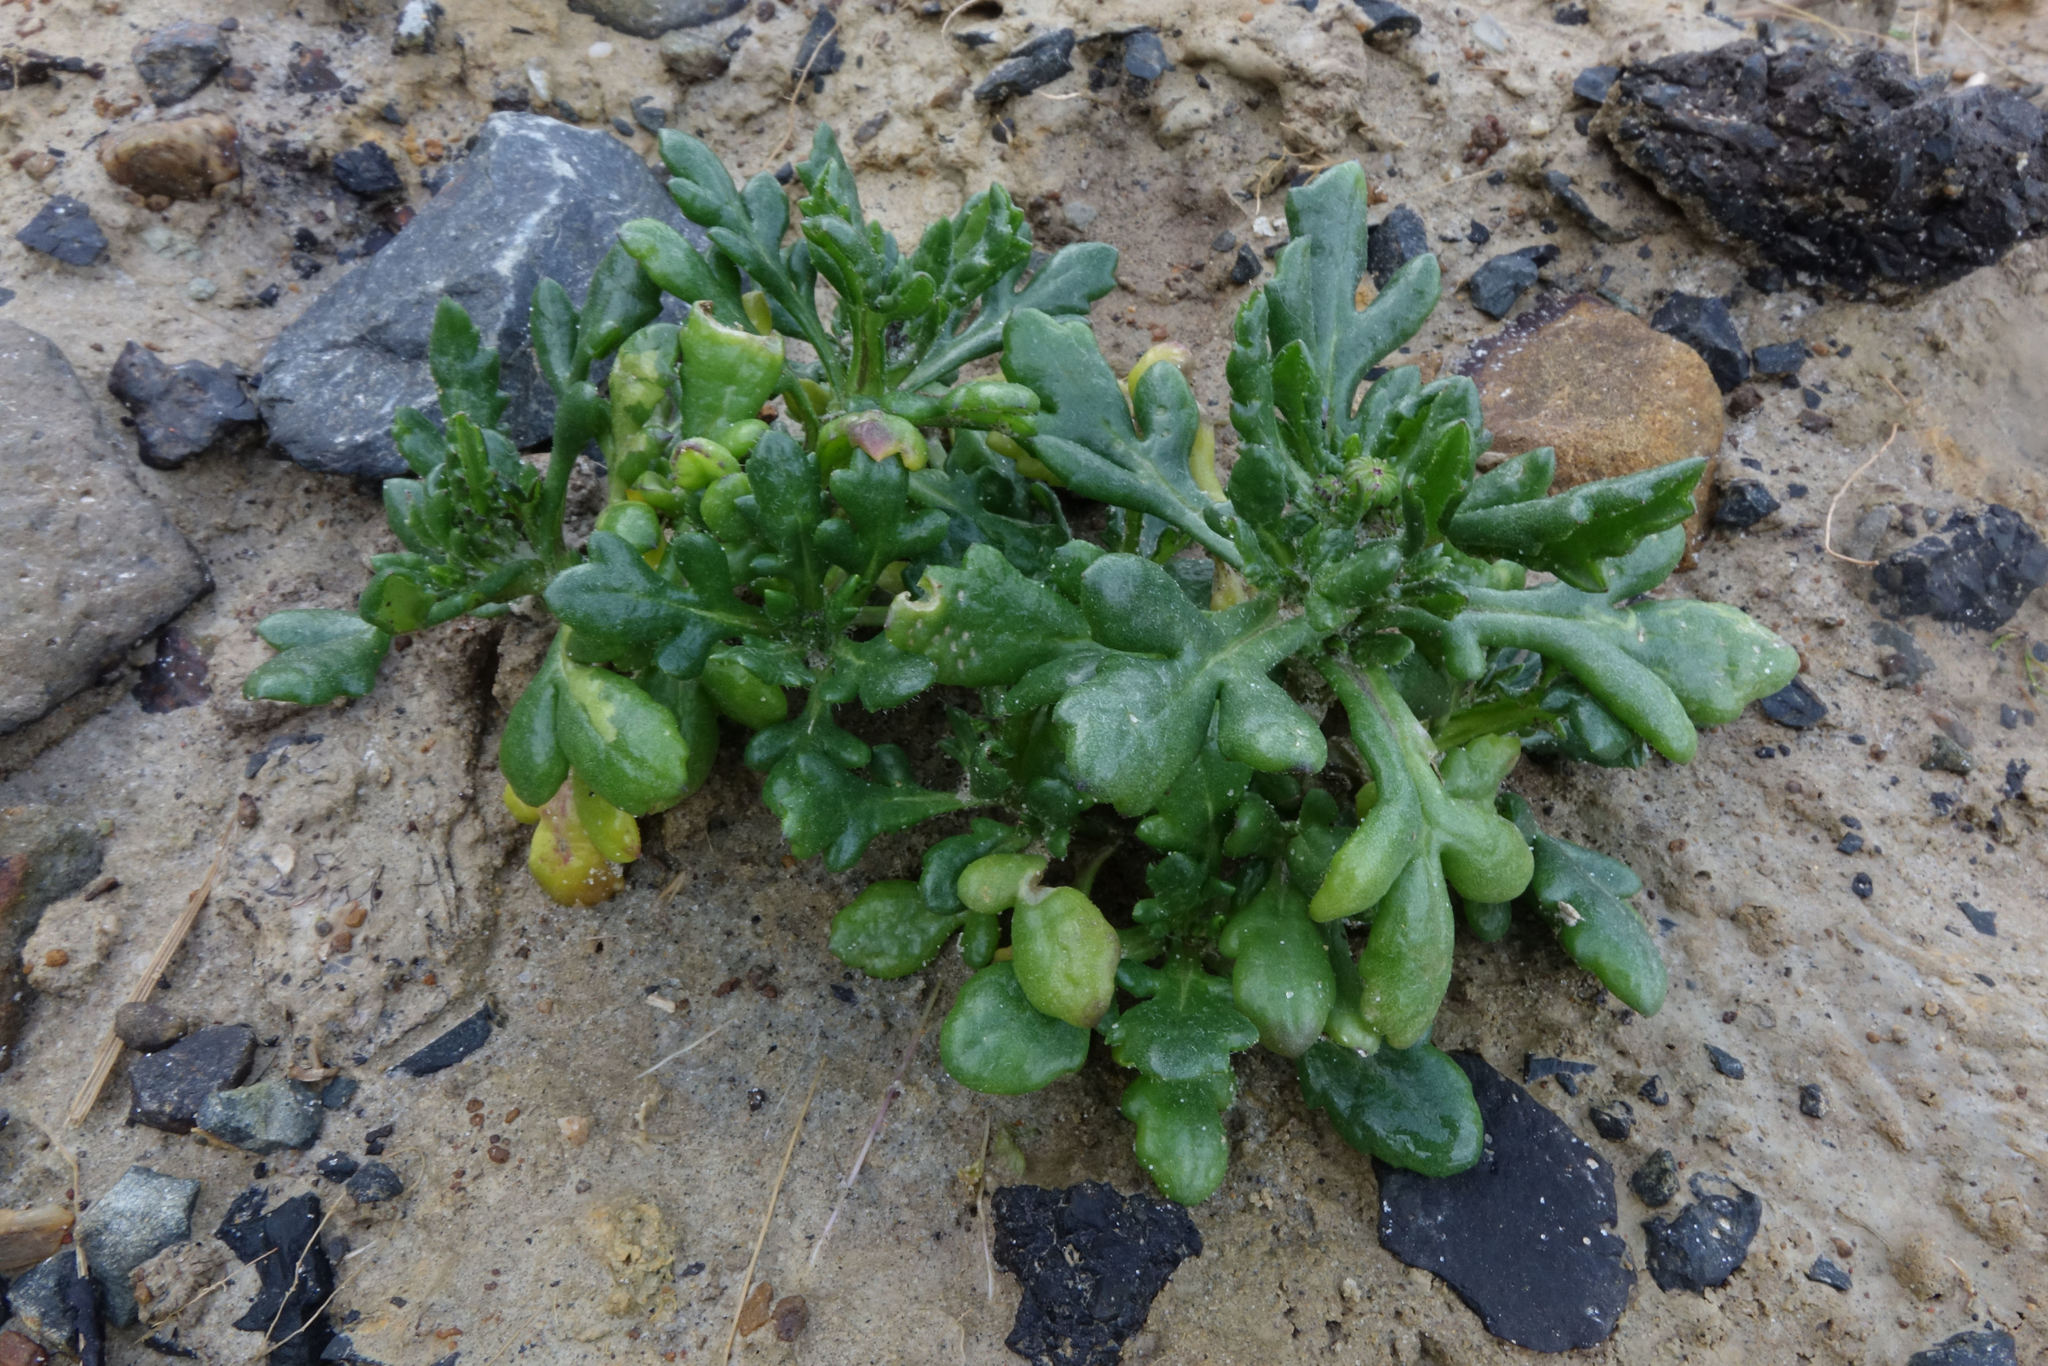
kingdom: Plantae
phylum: Tracheophyta
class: Magnoliopsida
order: Asterales
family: Asteraceae
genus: Senecio
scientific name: Senecio carnosulus
